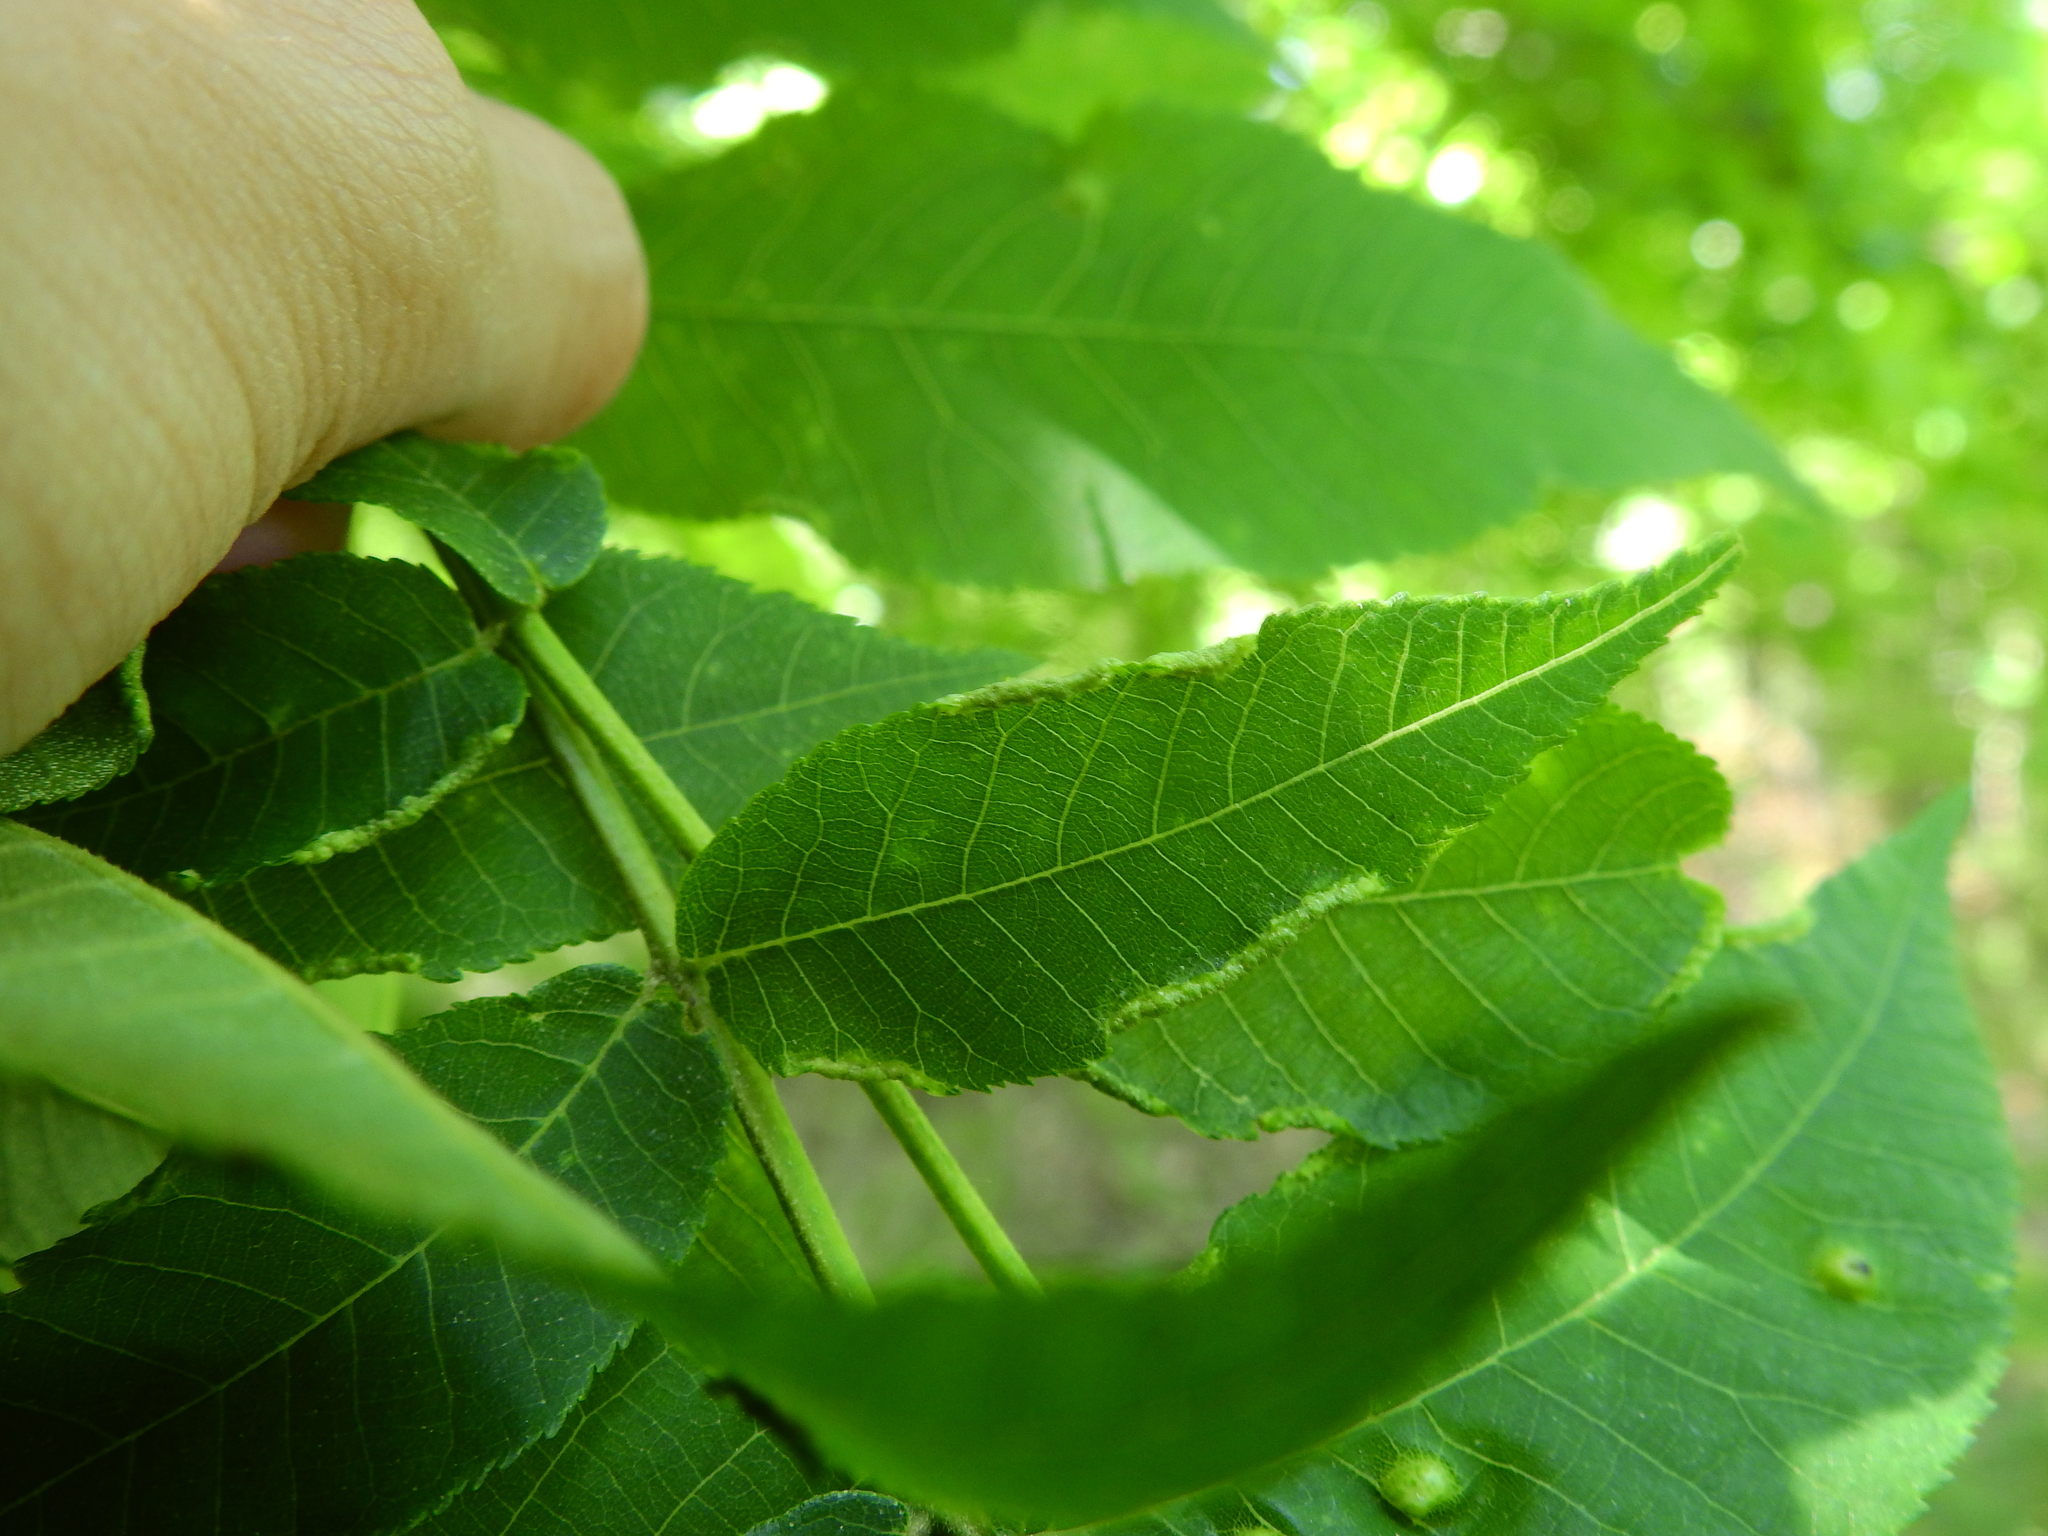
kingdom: Animalia
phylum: Arthropoda
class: Arachnida
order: Trombidiformes
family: Eriophyidae
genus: Aceria
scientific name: Aceria carlinae
